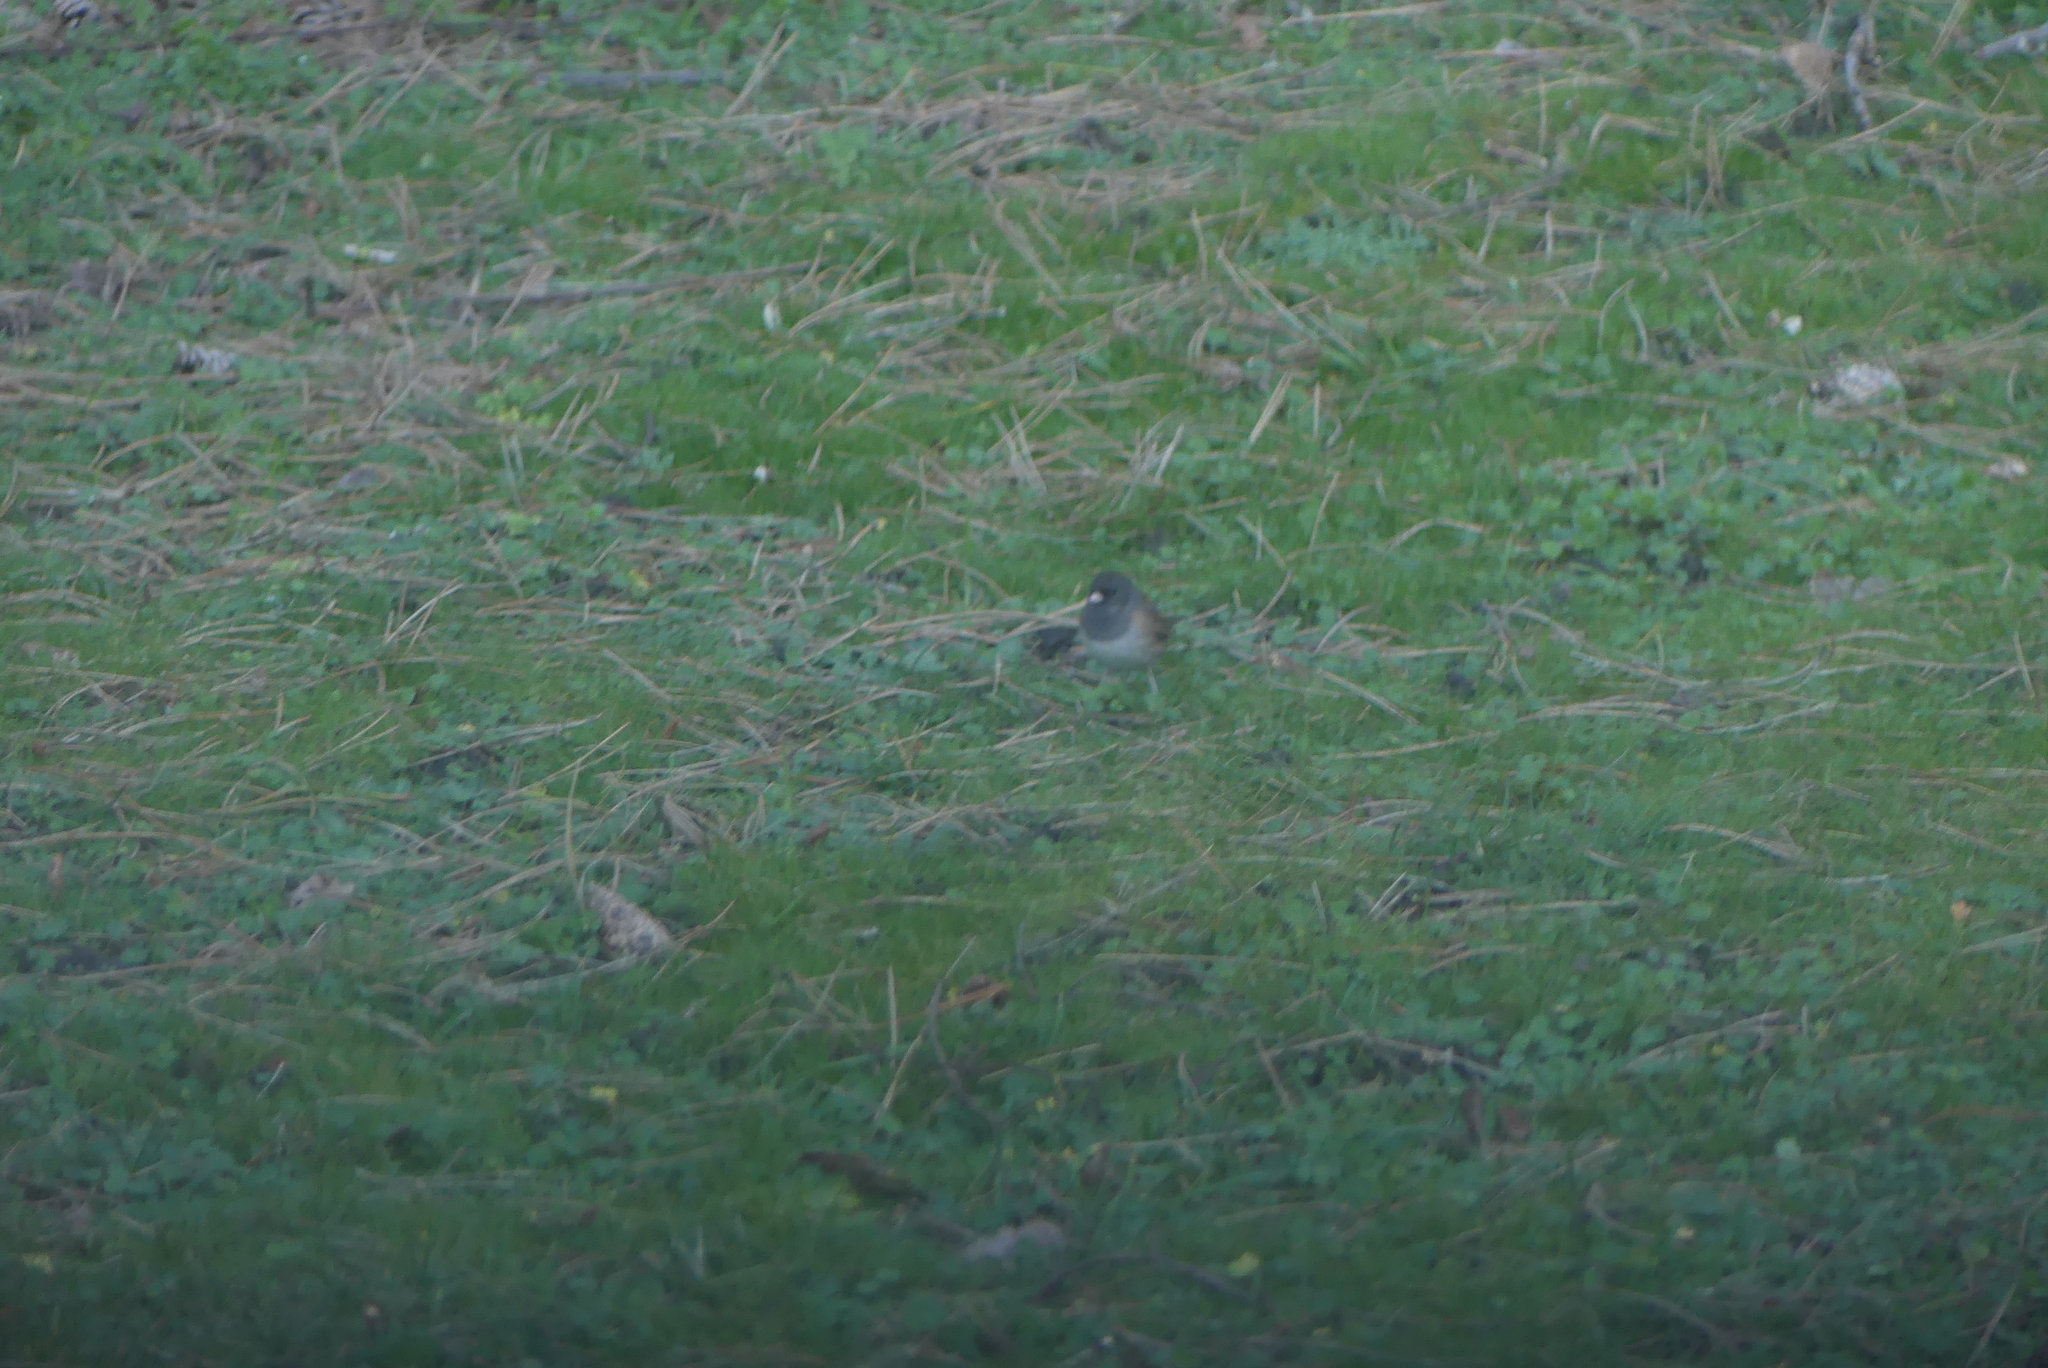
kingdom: Animalia
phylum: Chordata
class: Aves
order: Passeriformes
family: Passerellidae
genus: Junco
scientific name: Junco hyemalis
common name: Dark-eyed junco
